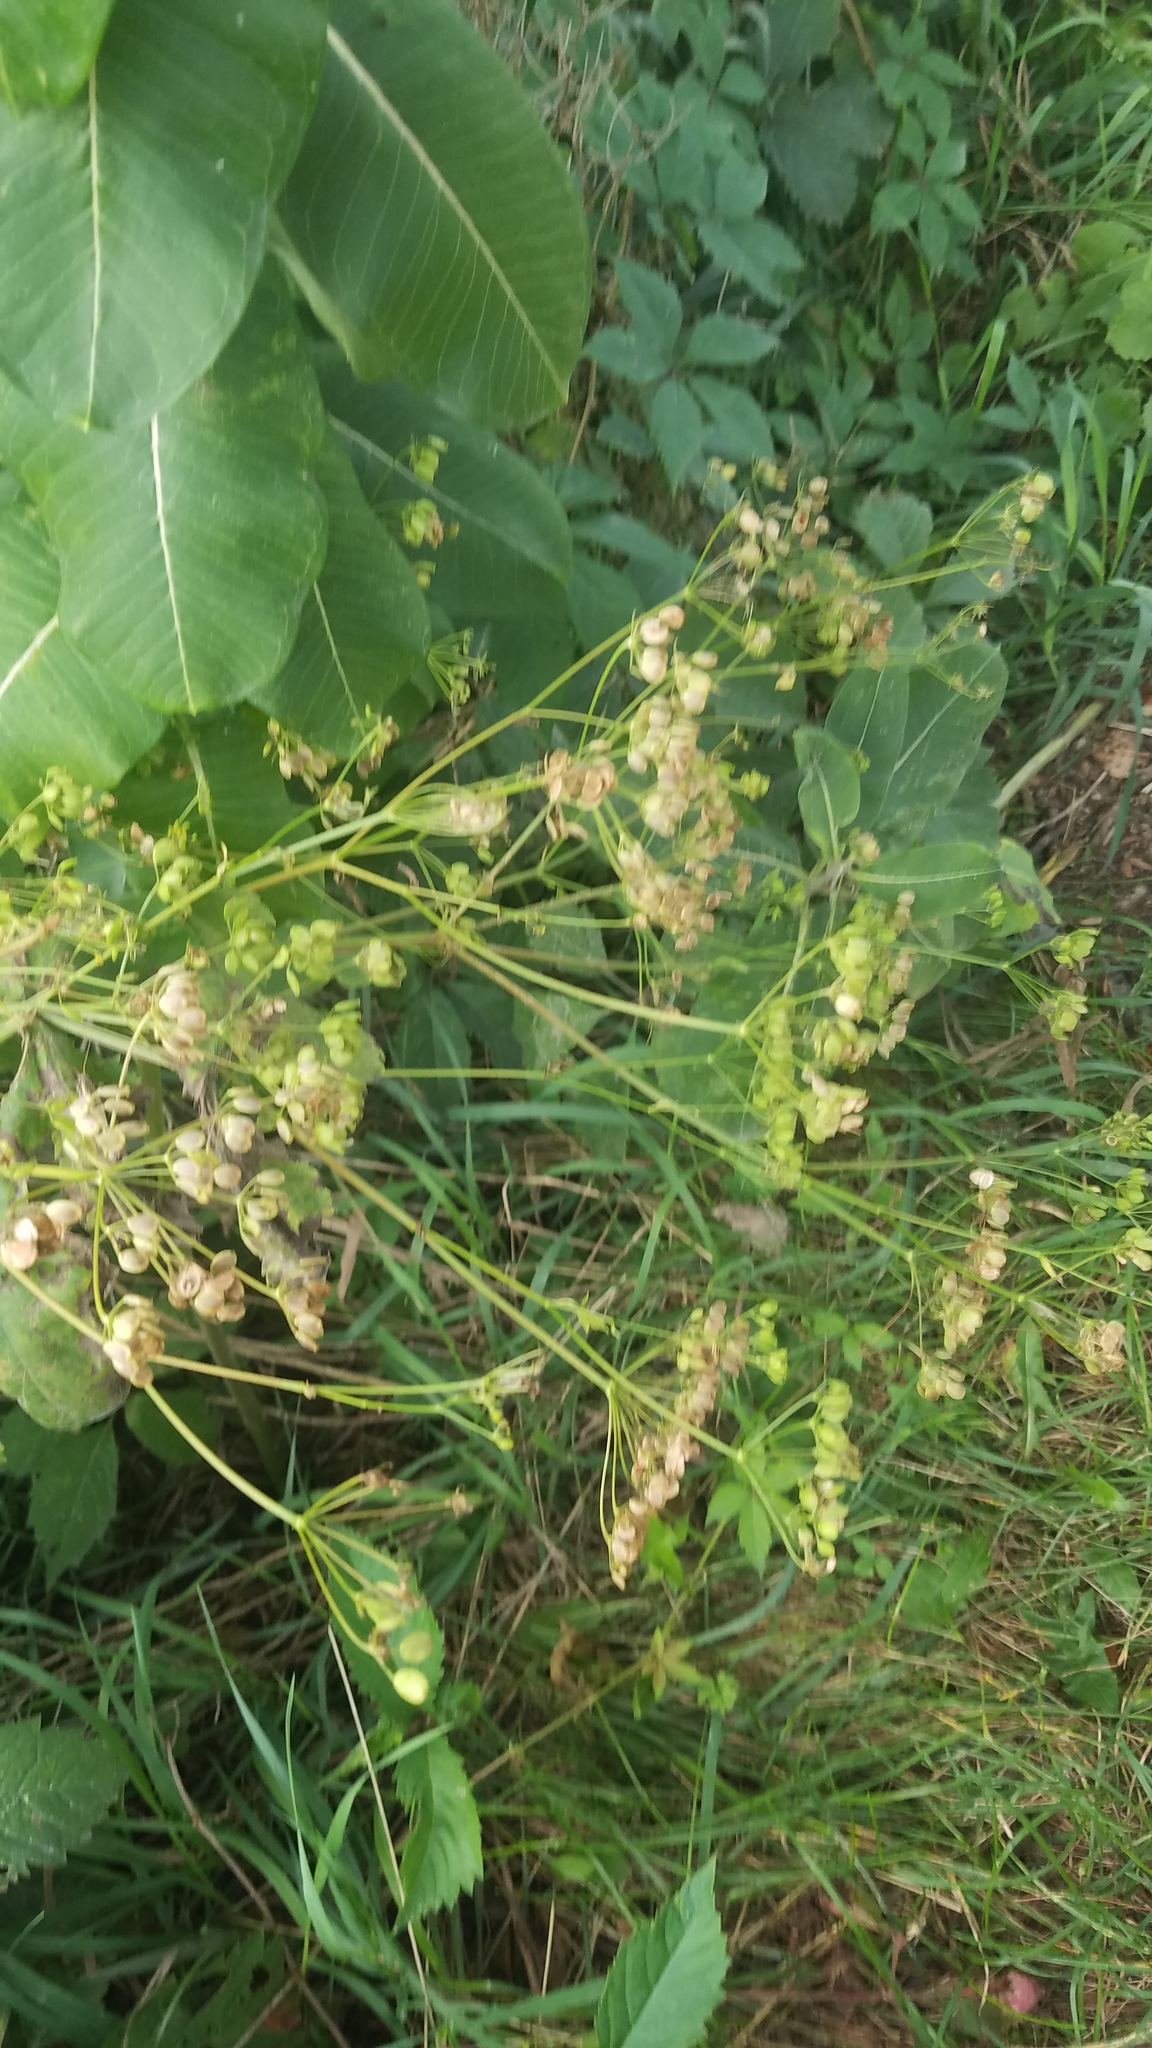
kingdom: Plantae
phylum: Tracheophyta
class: Magnoliopsida
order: Apiales
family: Apiaceae
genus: Pastinaca
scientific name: Pastinaca sativa
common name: Wild parsnip
